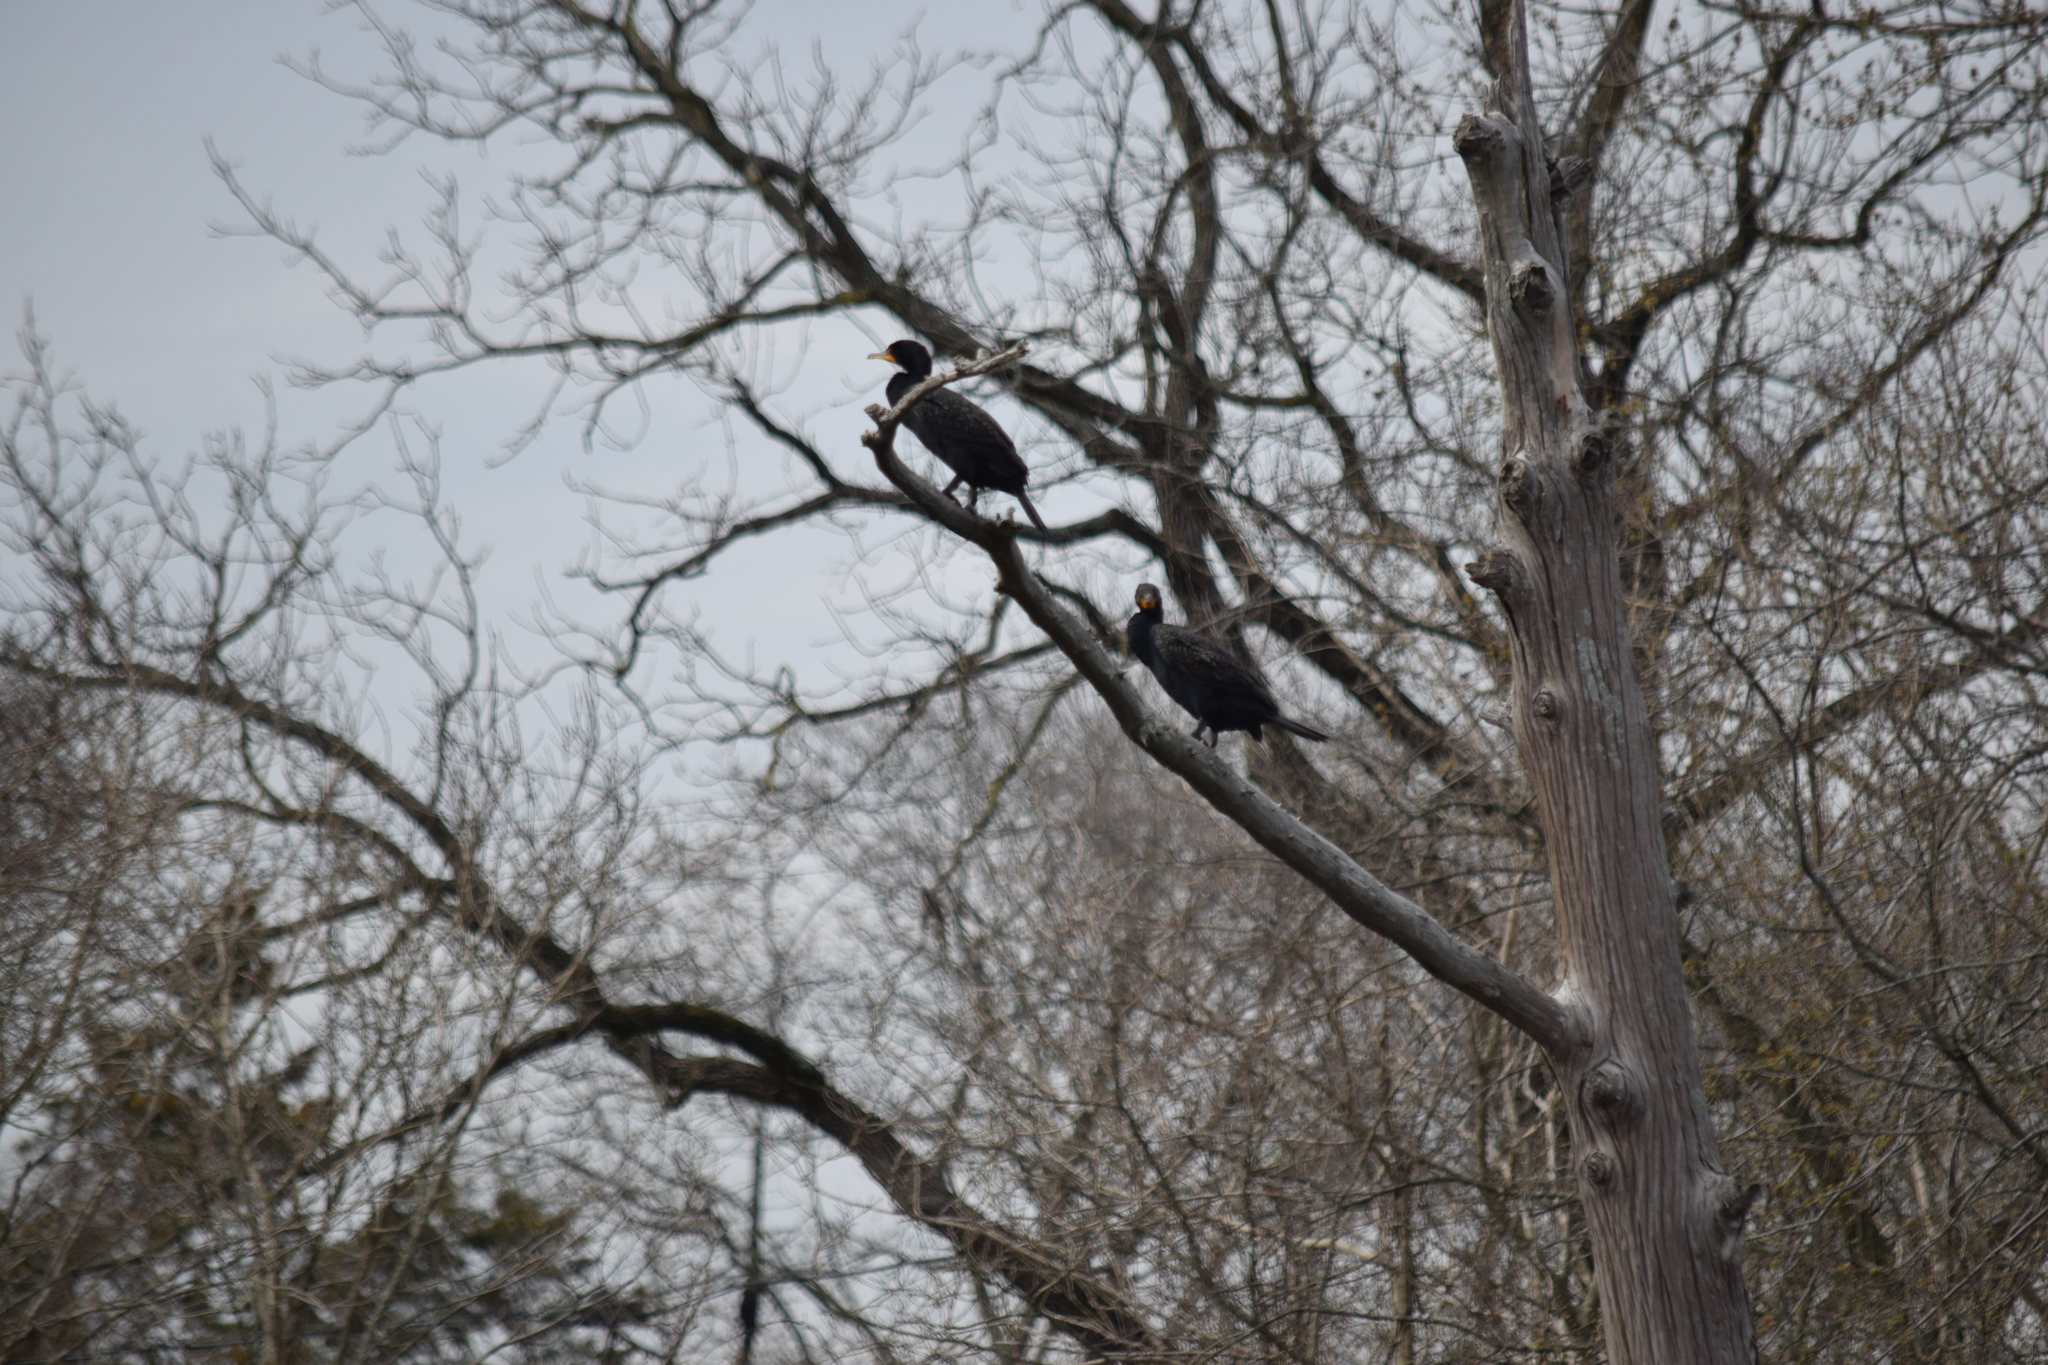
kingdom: Animalia
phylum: Chordata
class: Aves
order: Suliformes
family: Phalacrocoracidae
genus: Phalacrocorax
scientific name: Phalacrocorax auritus
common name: Double-crested cormorant
